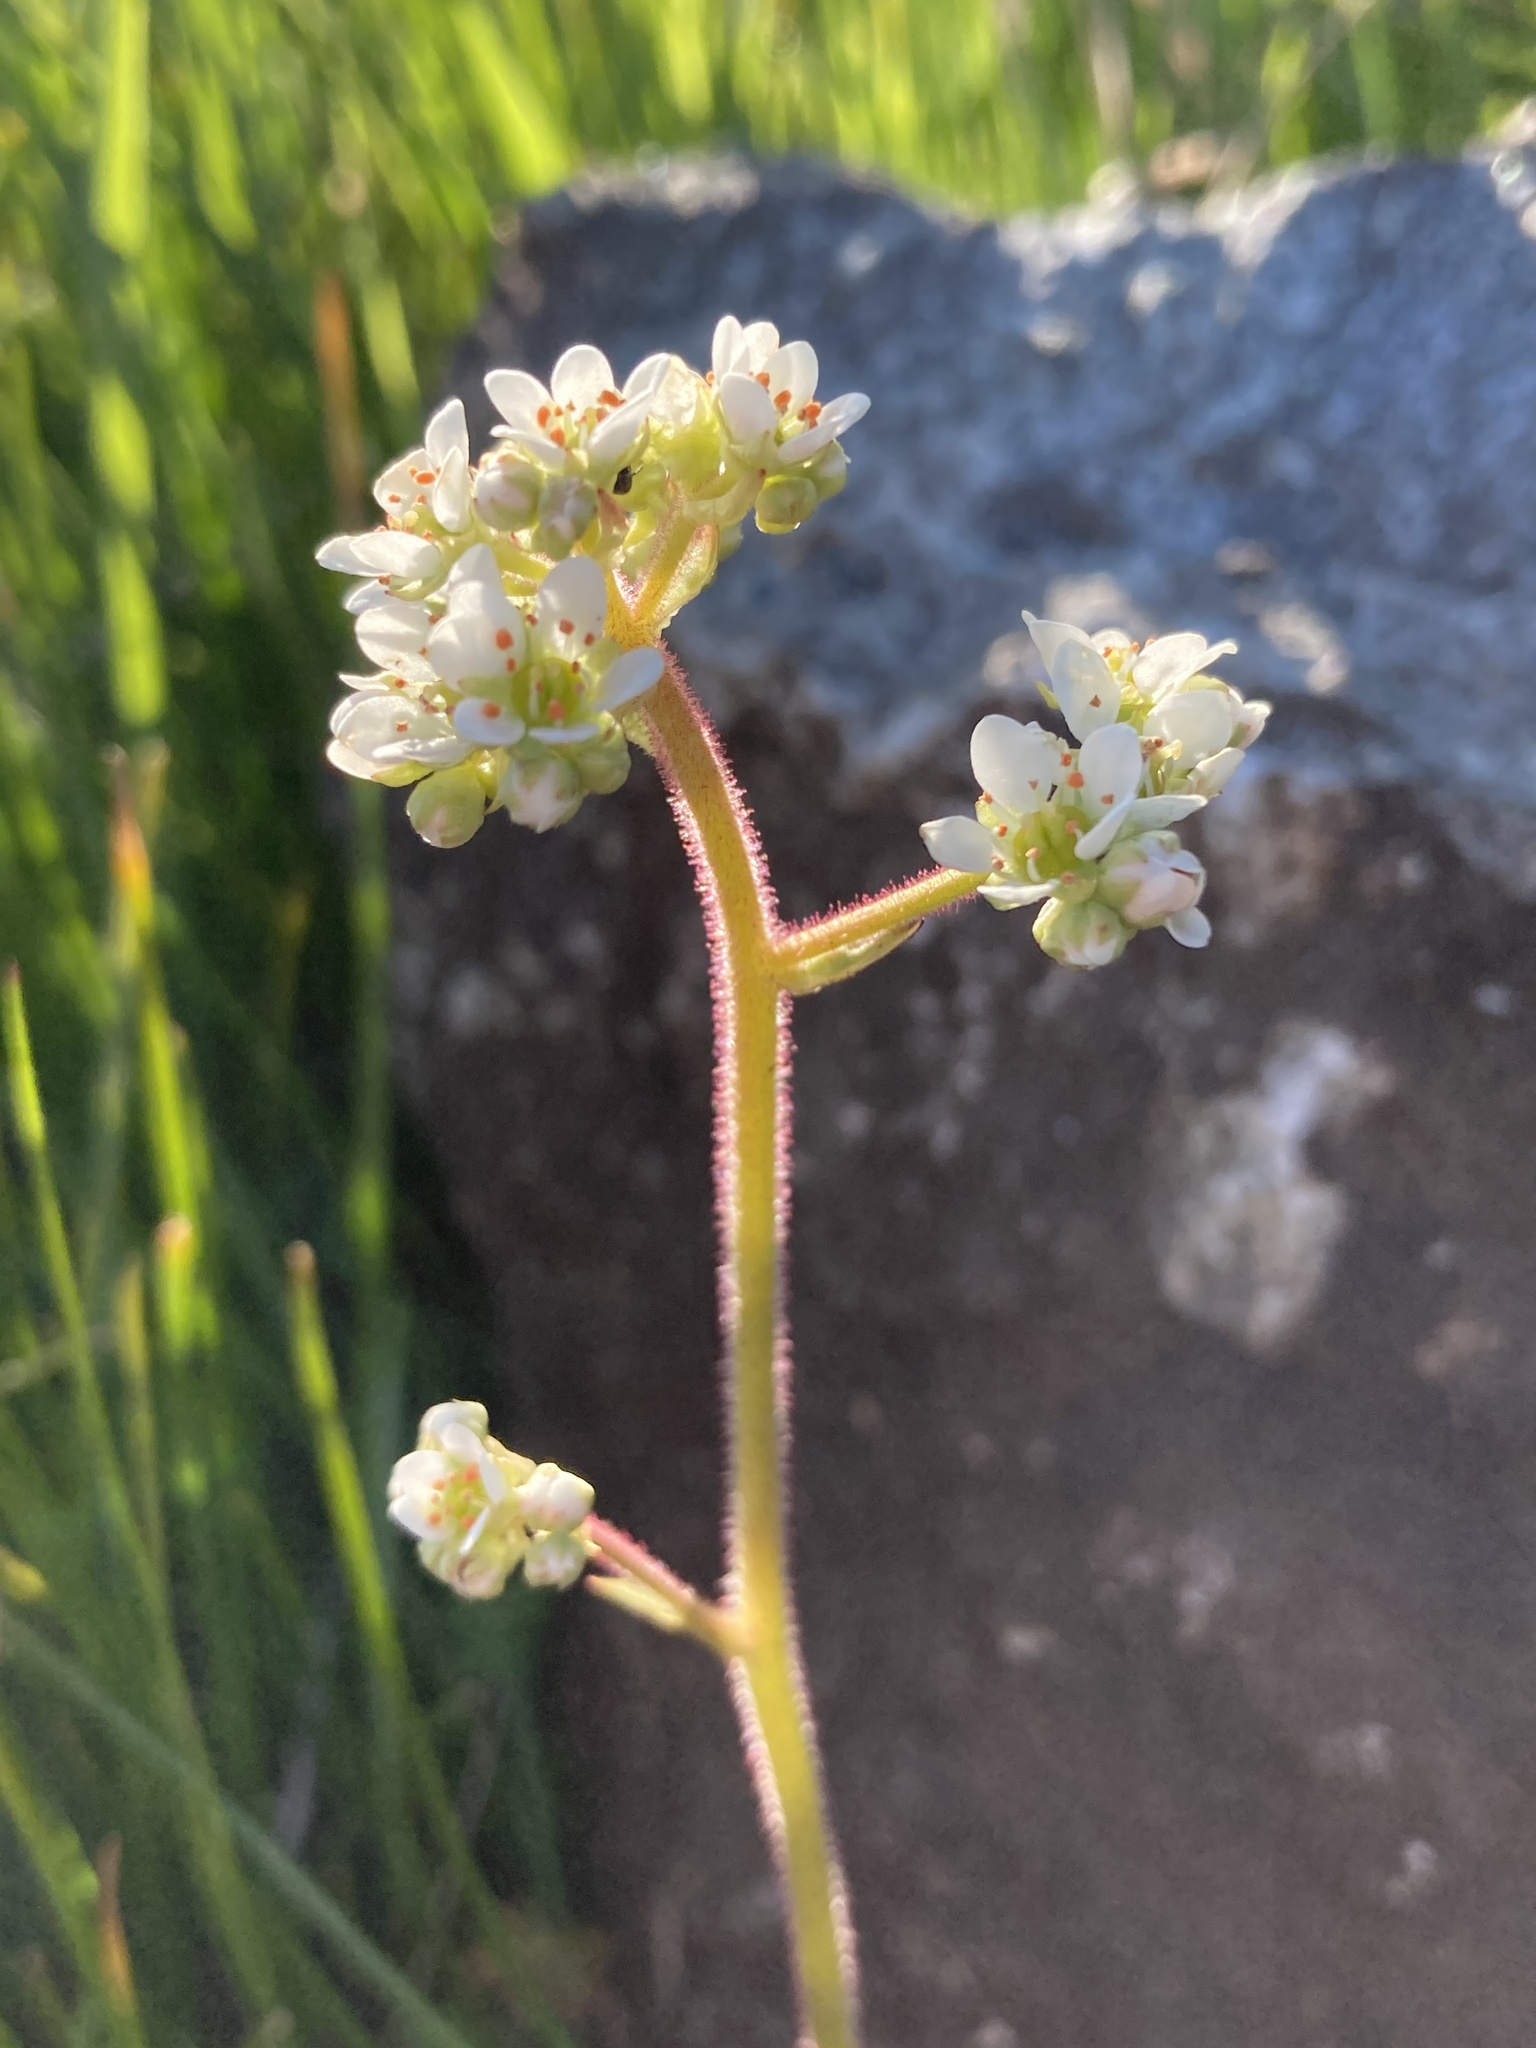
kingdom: Plantae
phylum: Tracheophyta
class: Magnoliopsida
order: Saxifragales
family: Saxifragaceae
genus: Micranthes
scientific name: Micranthes integrifolia
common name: Wholeleaf saxifrage
